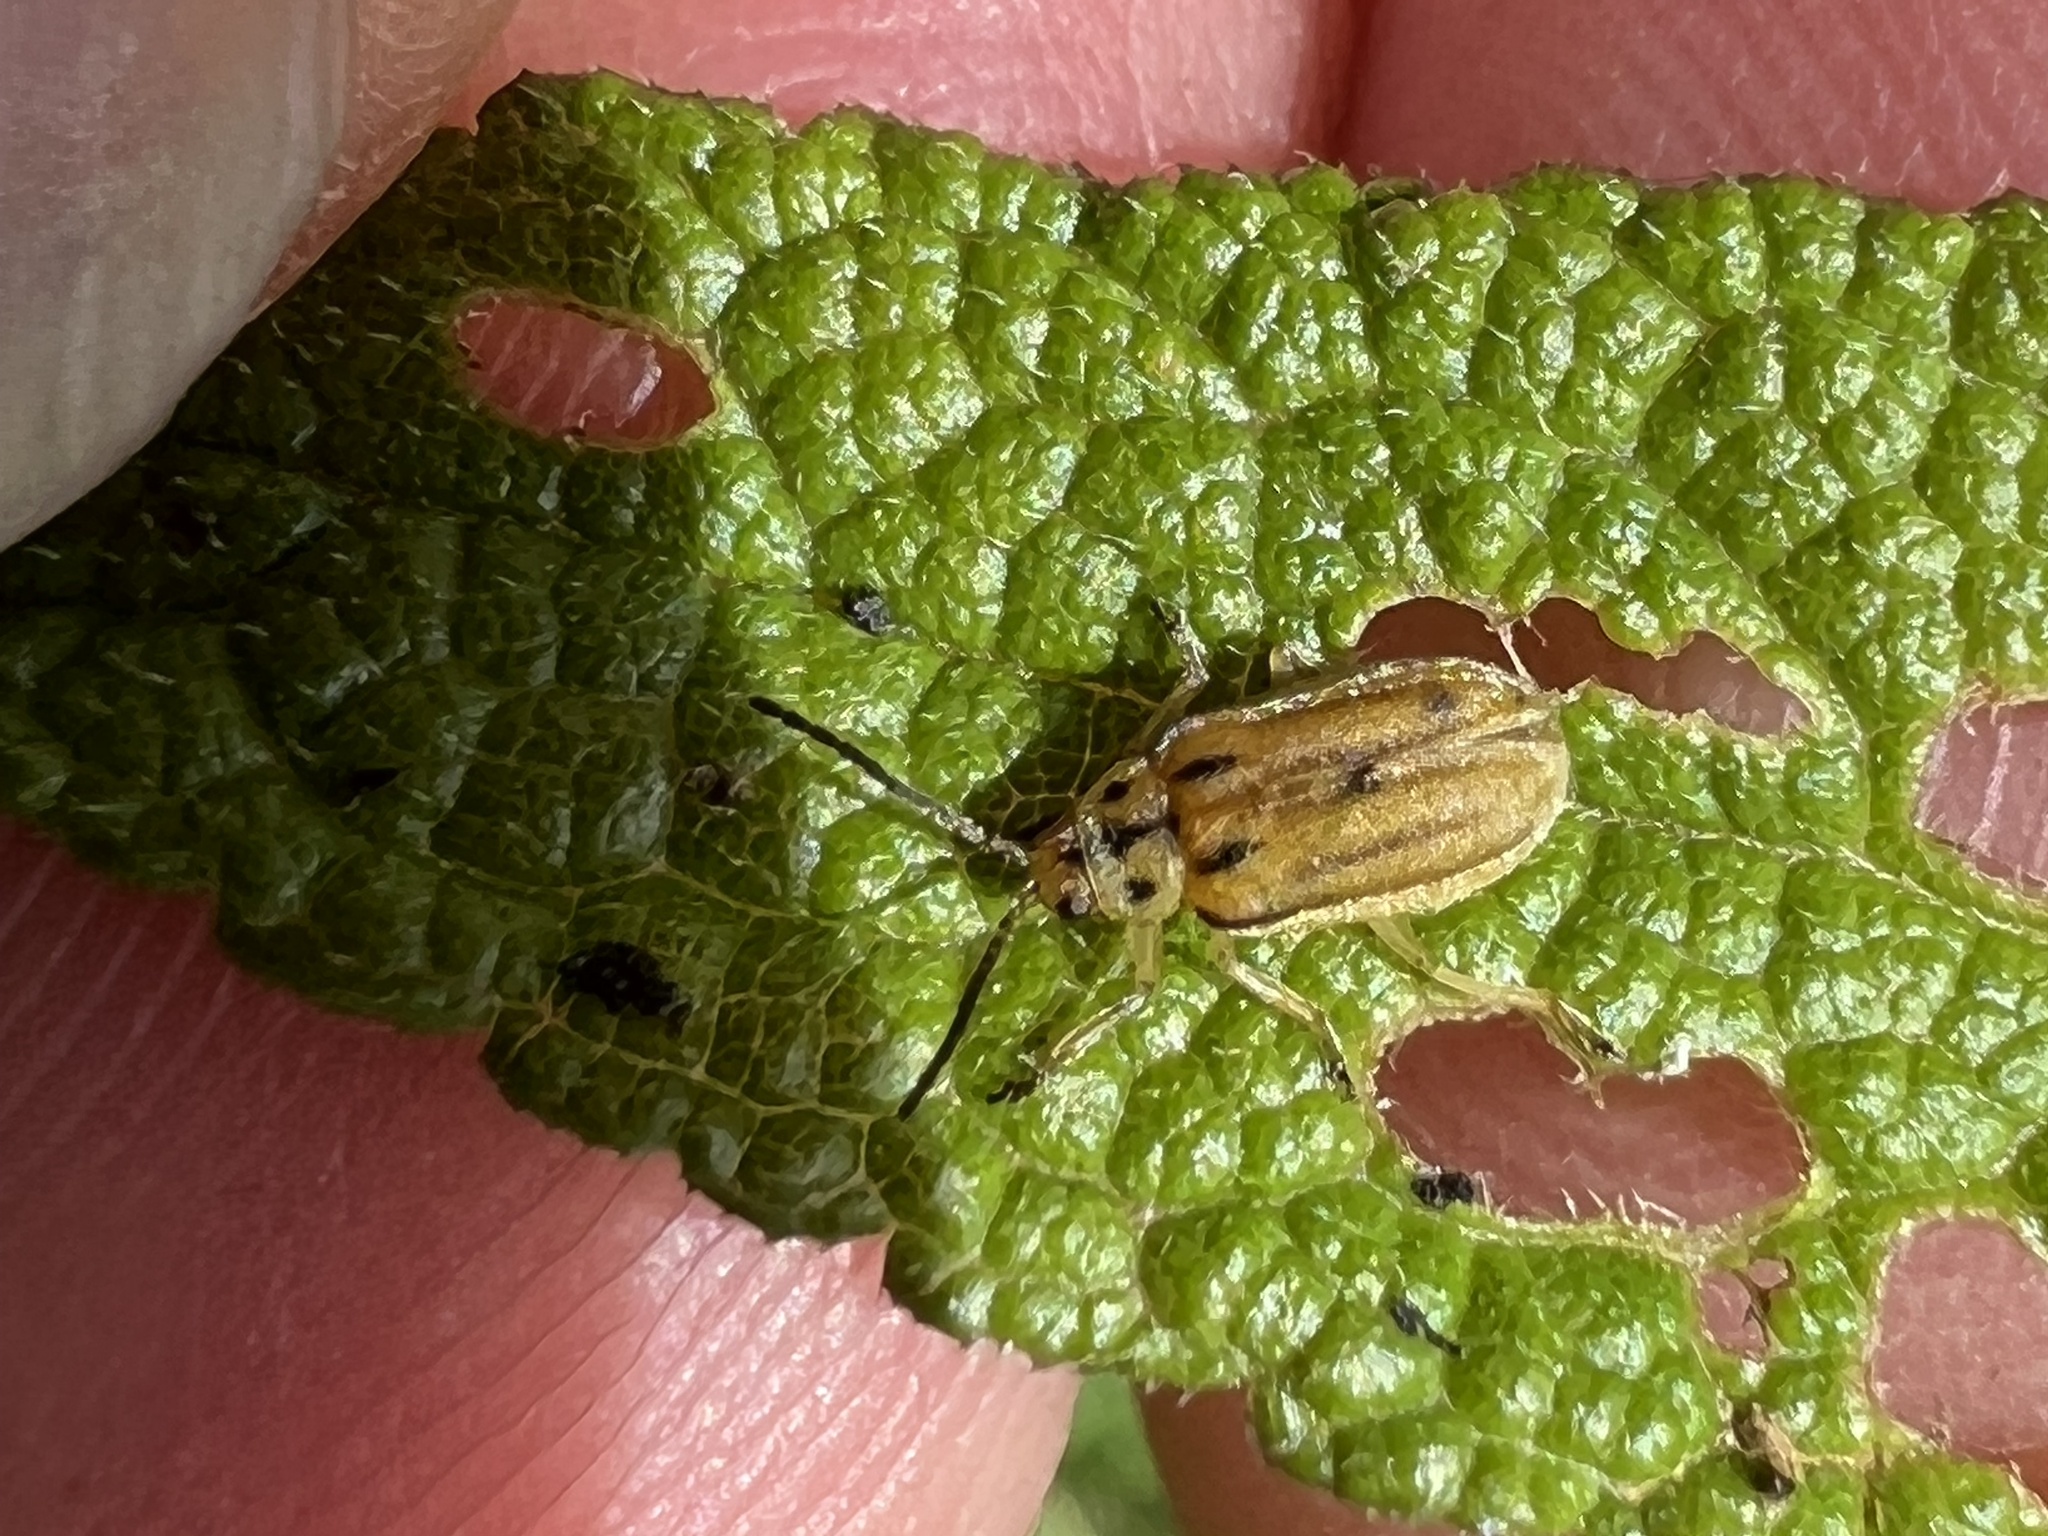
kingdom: Animalia
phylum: Arthropoda
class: Insecta
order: Coleoptera
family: Chrysomelidae
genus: Ophraella
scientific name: Ophraella communa
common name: Ragweed leaf beetle
